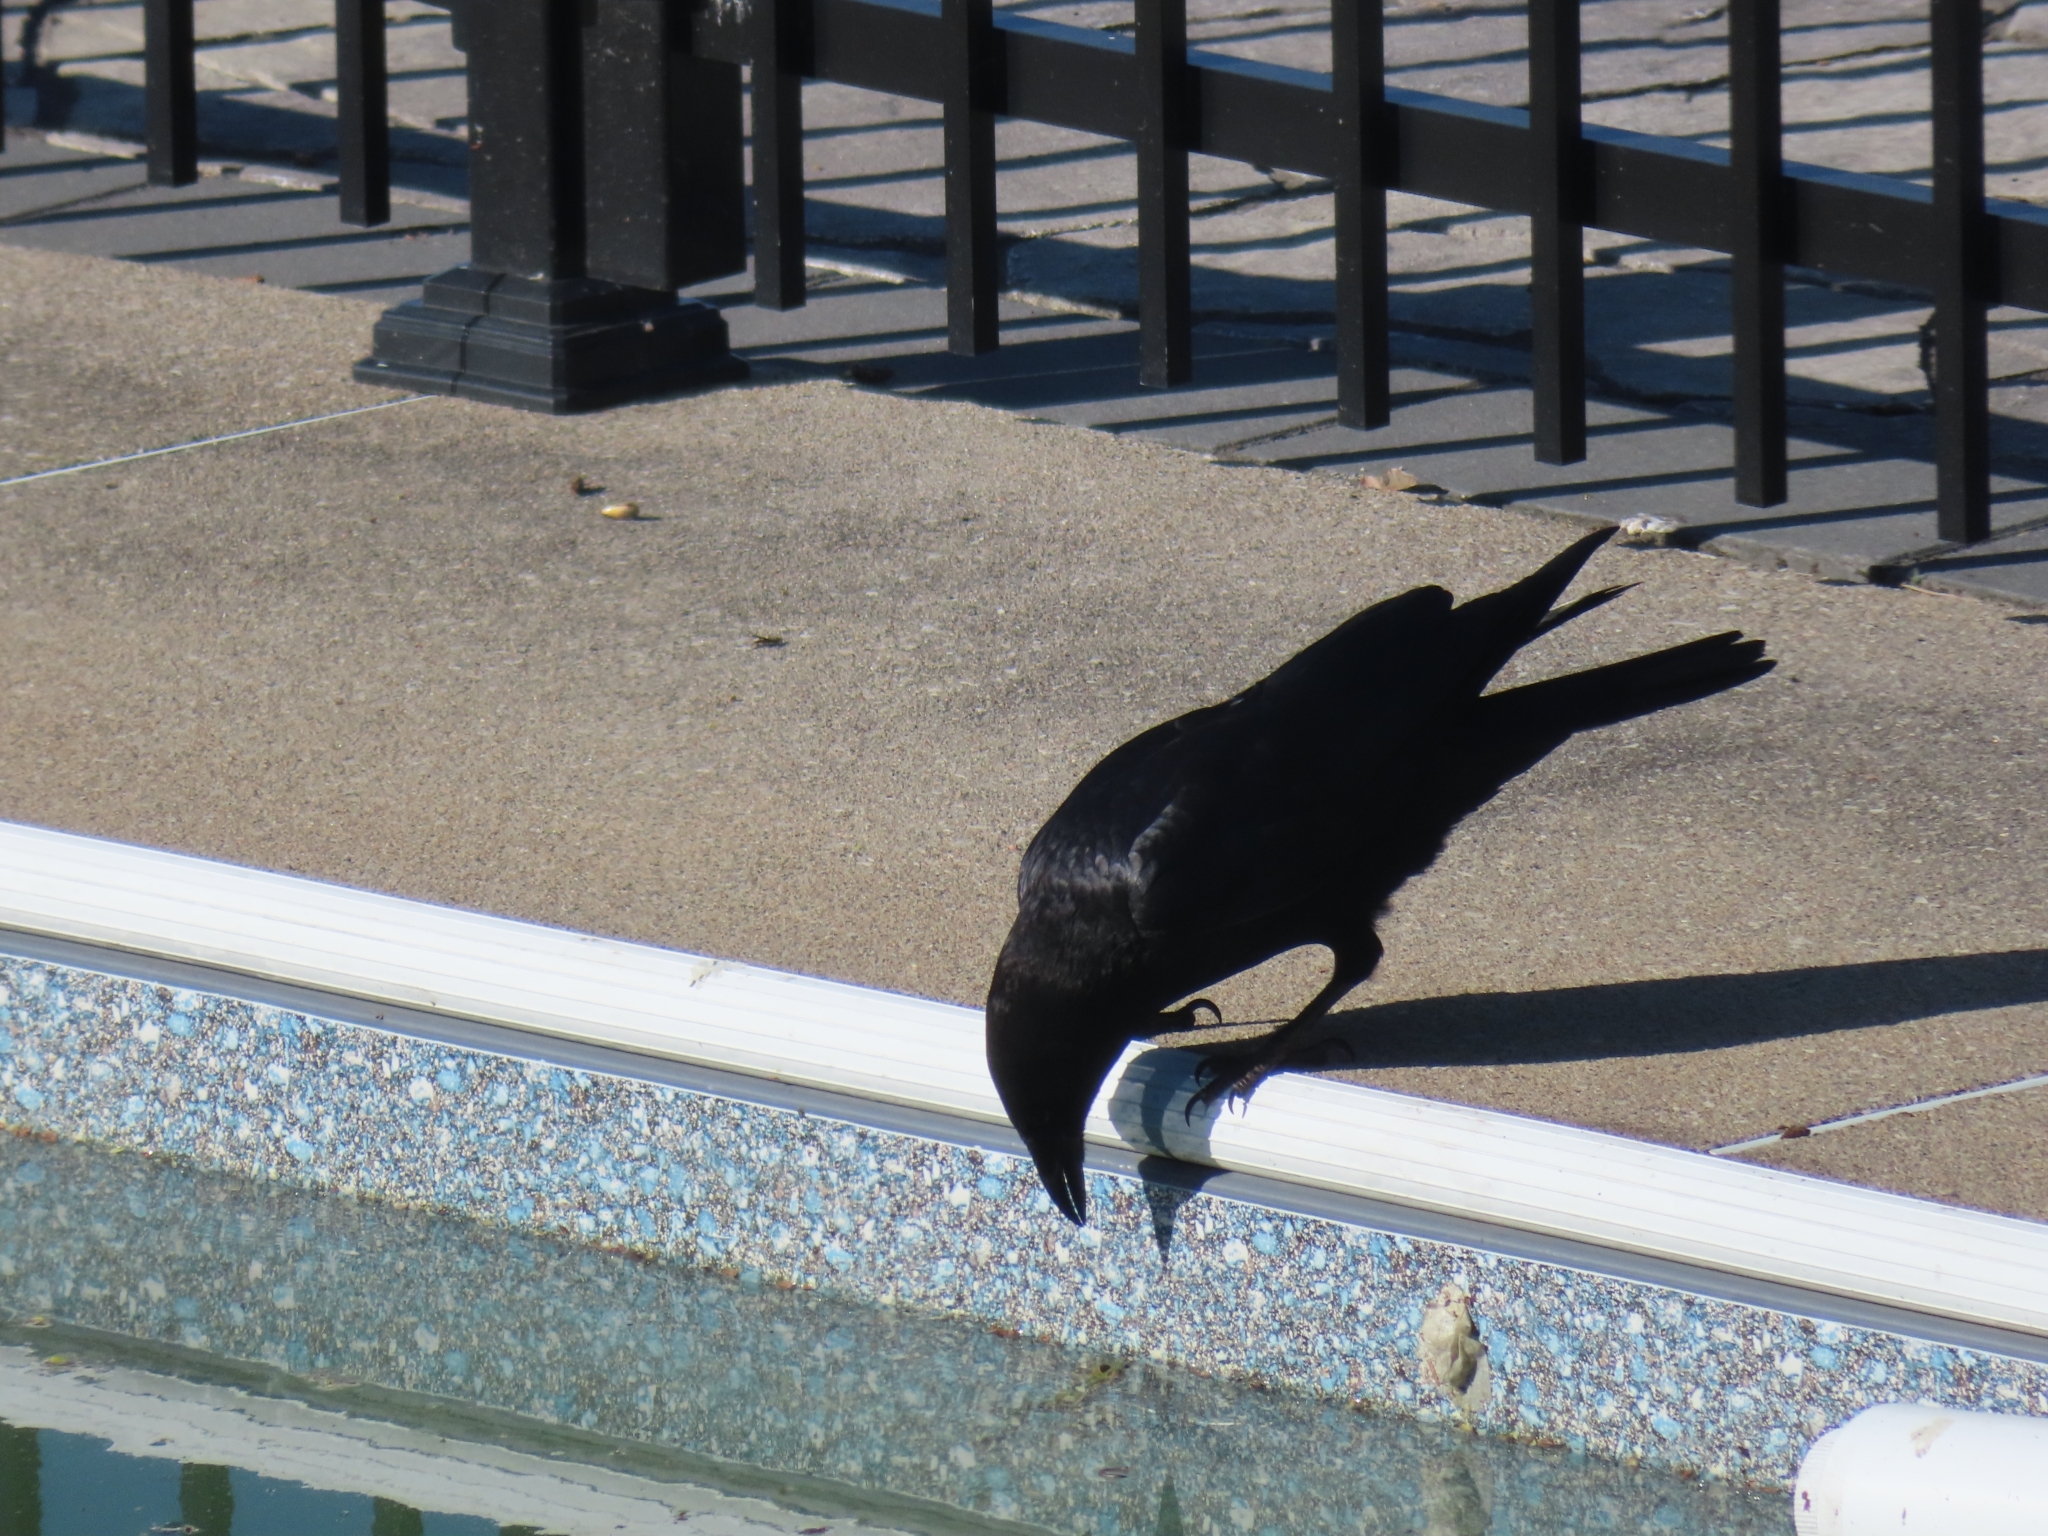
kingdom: Animalia
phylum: Chordata
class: Aves
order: Passeriformes
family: Corvidae
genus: Corvus
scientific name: Corvus brachyrhynchos
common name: American crow
